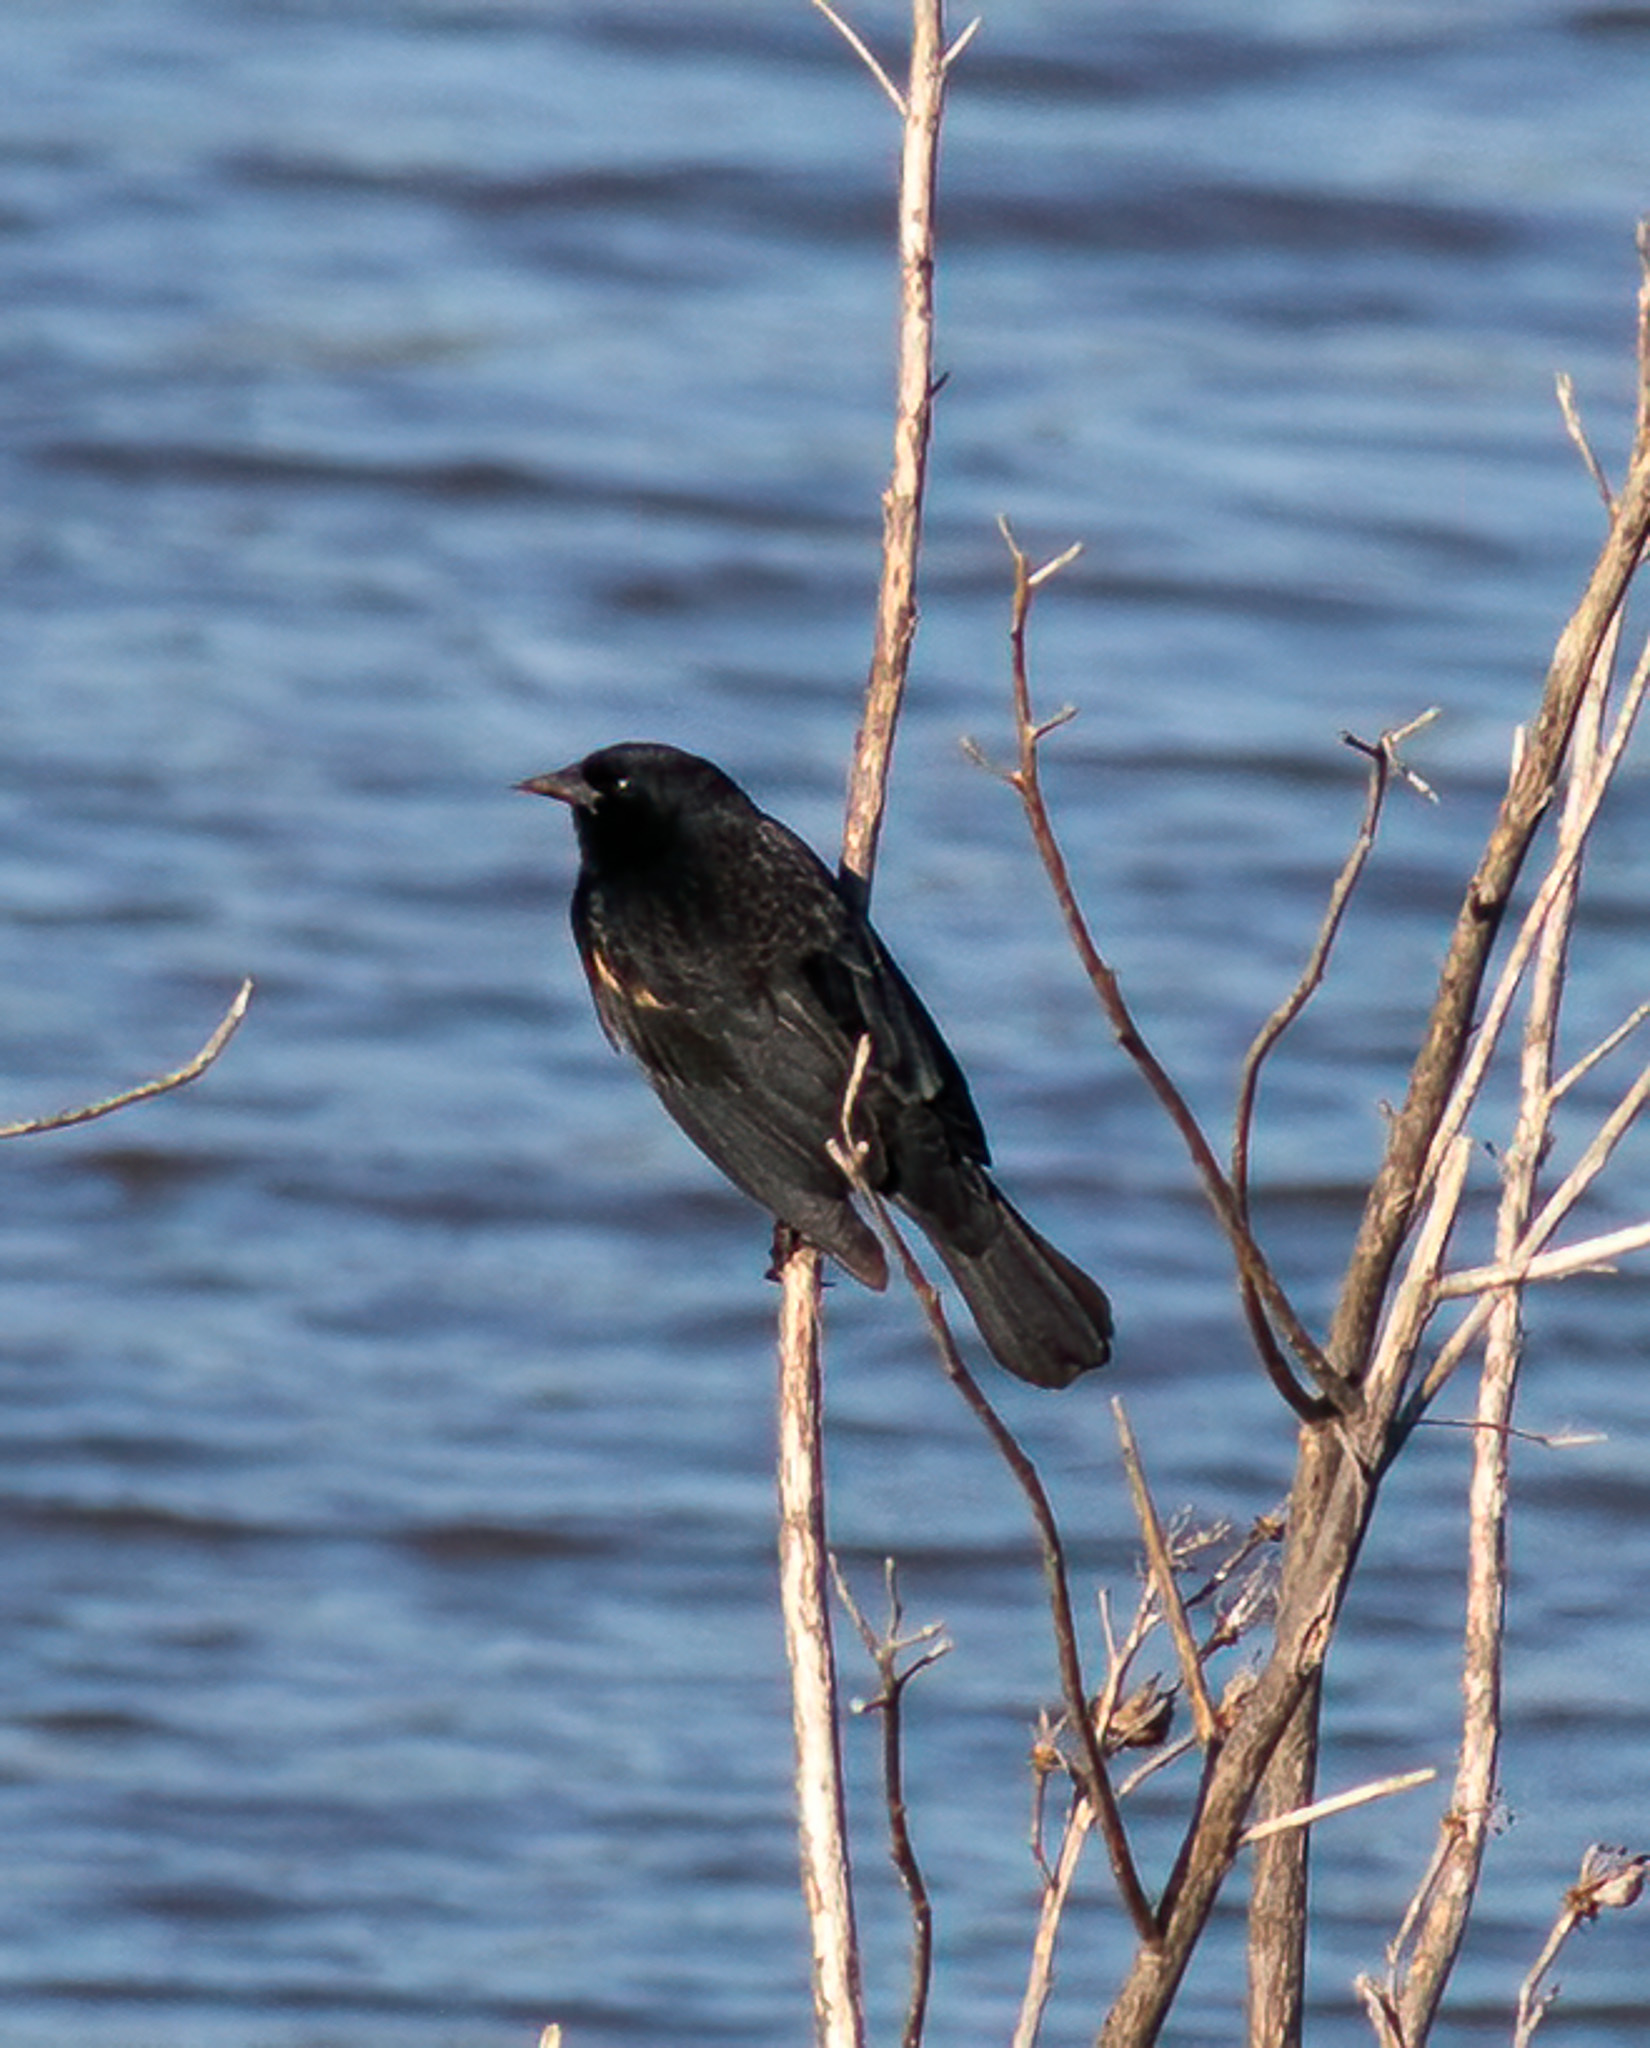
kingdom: Animalia
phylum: Chordata
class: Aves
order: Passeriformes
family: Icteridae
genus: Agelaius
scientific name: Agelaius phoeniceus
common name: Red-winged blackbird
